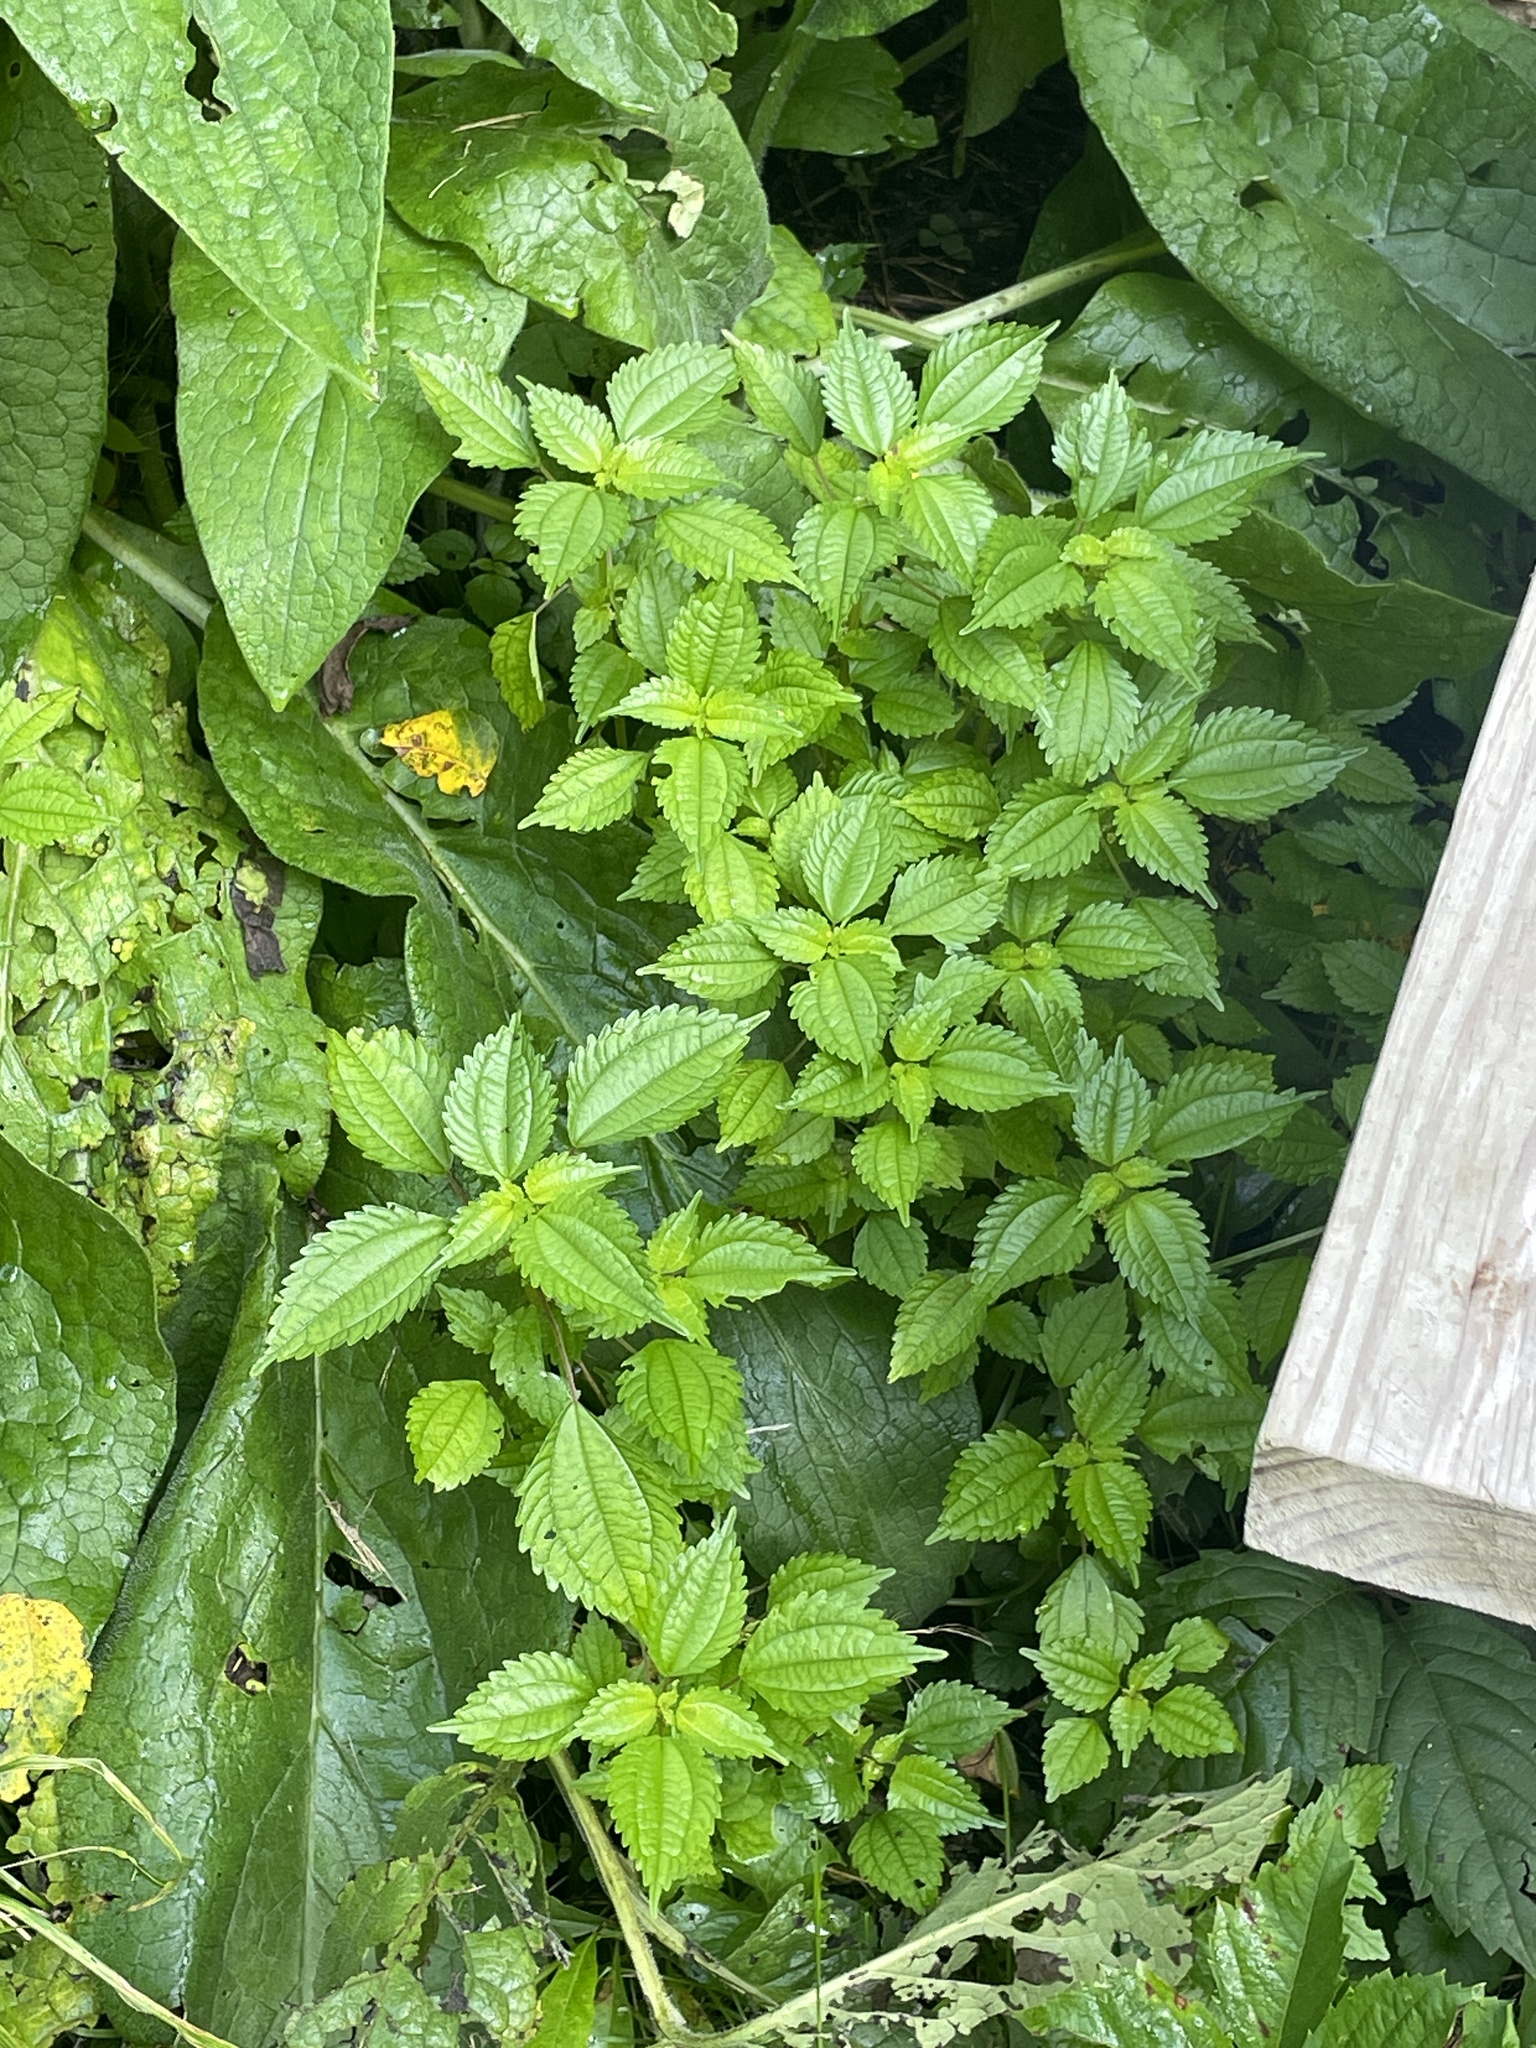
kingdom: Plantae
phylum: Tracheophyta
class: Magnoliopsida
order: Rosales
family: Urticaceae
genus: Pilea
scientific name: Pilea pumila
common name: Clearweed
